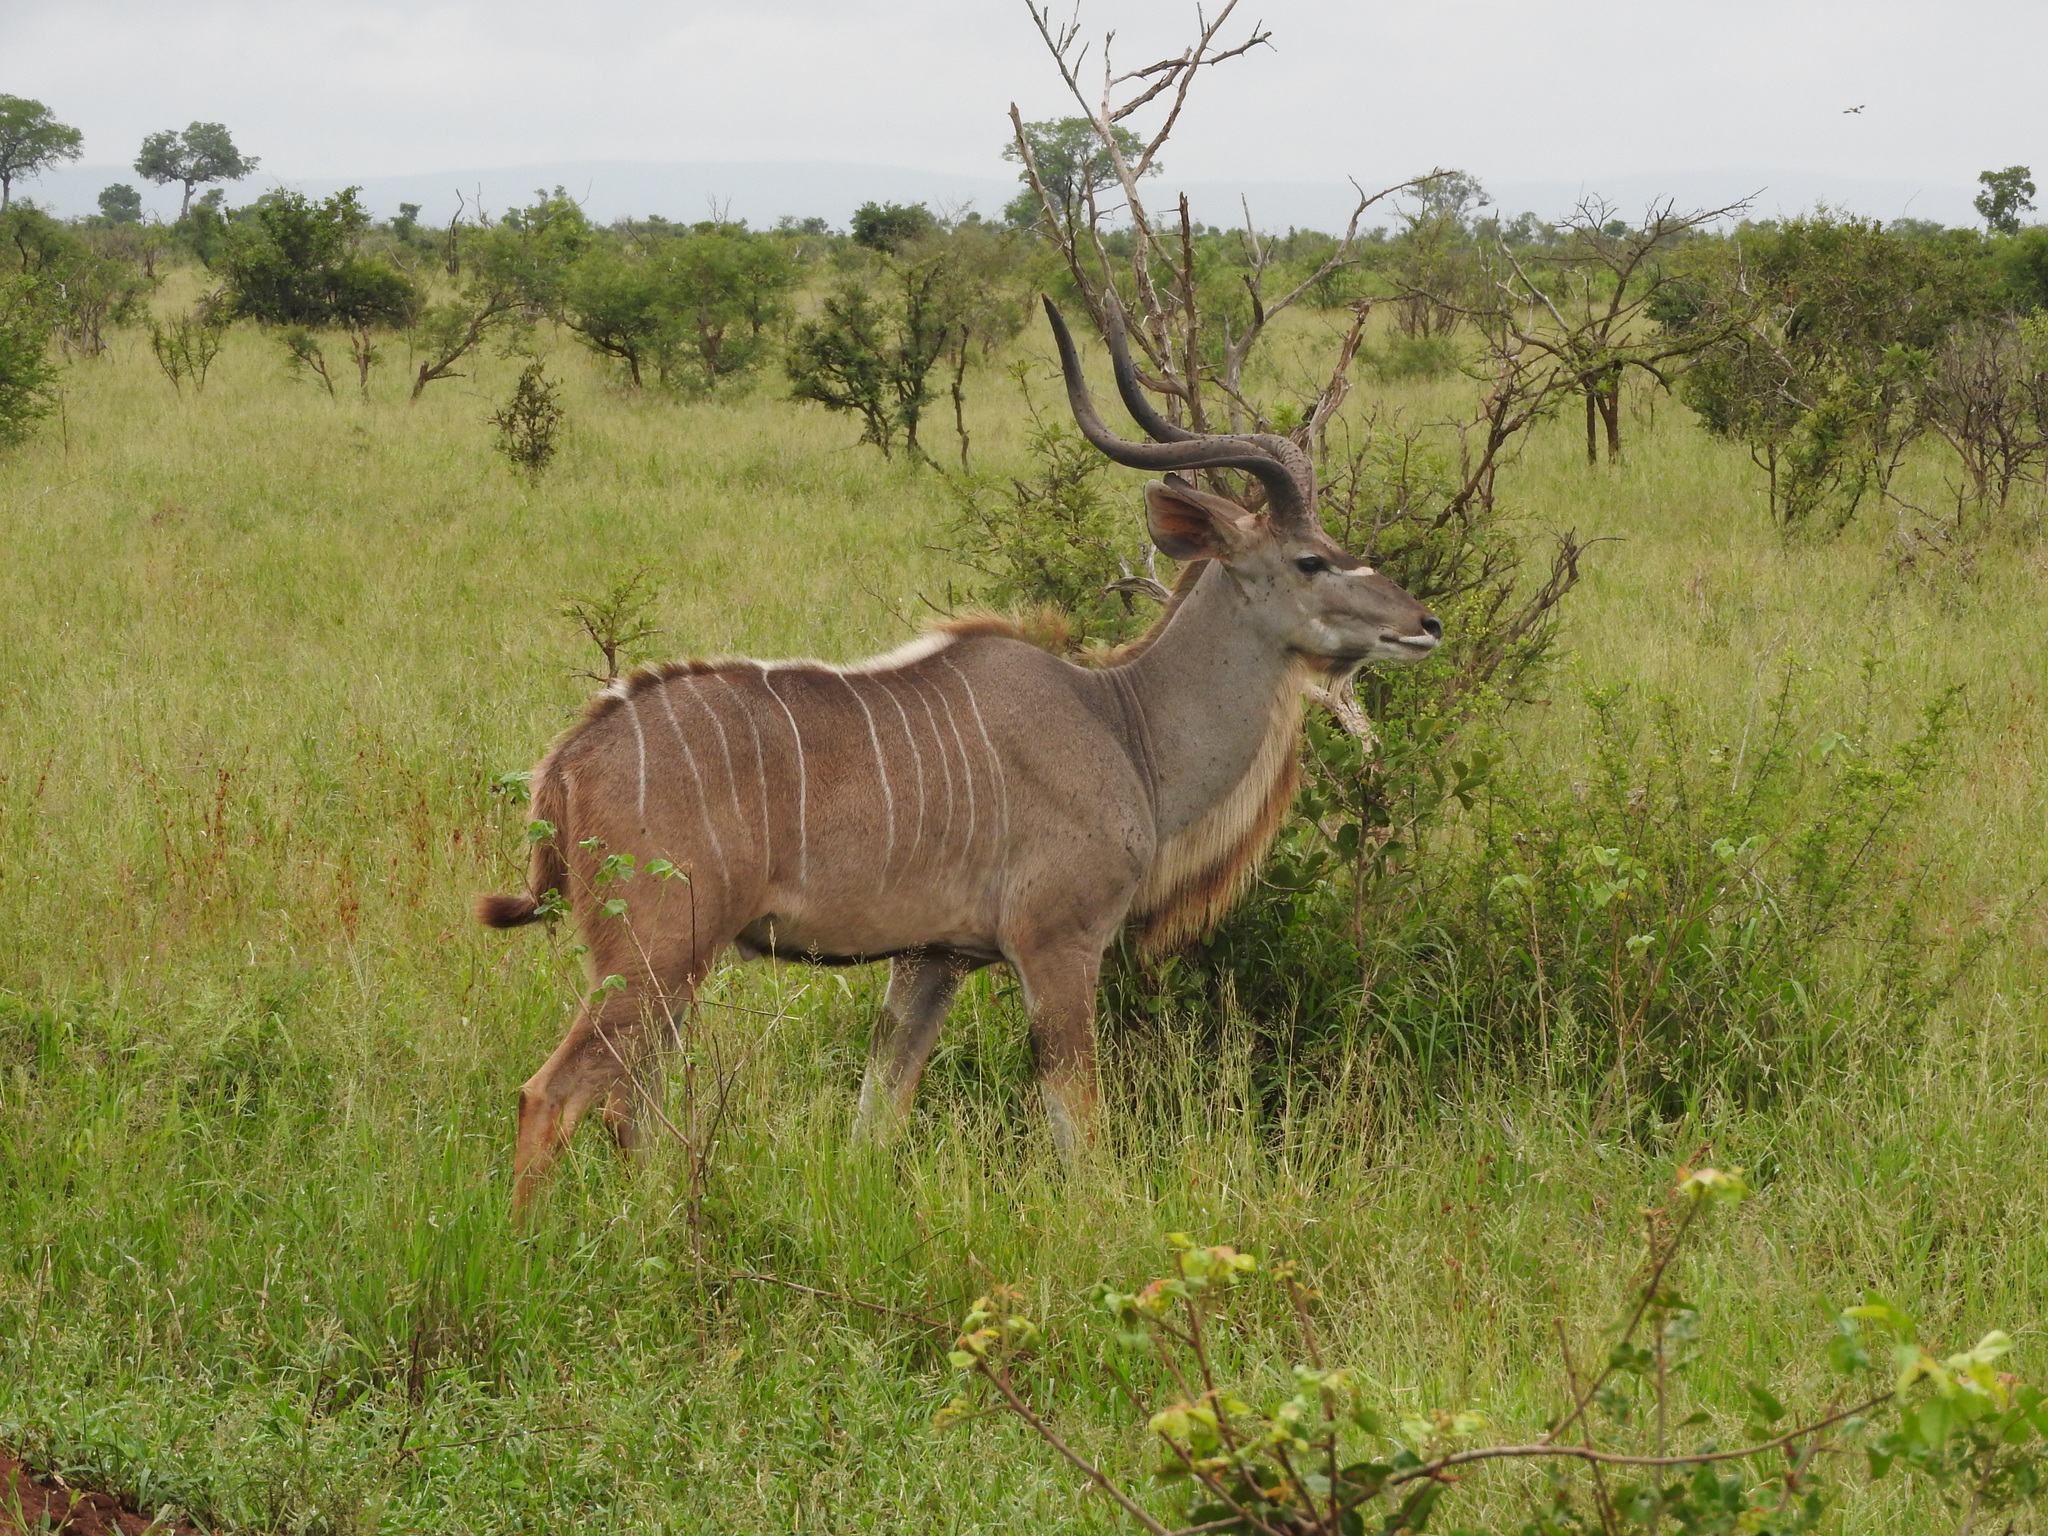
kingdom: Animalia
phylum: Chordata
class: Mammalia
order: Artiodactyla
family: Bovidae
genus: Tragelaphus
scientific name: Tragelaphus strepsiceros
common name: Greater kudu
